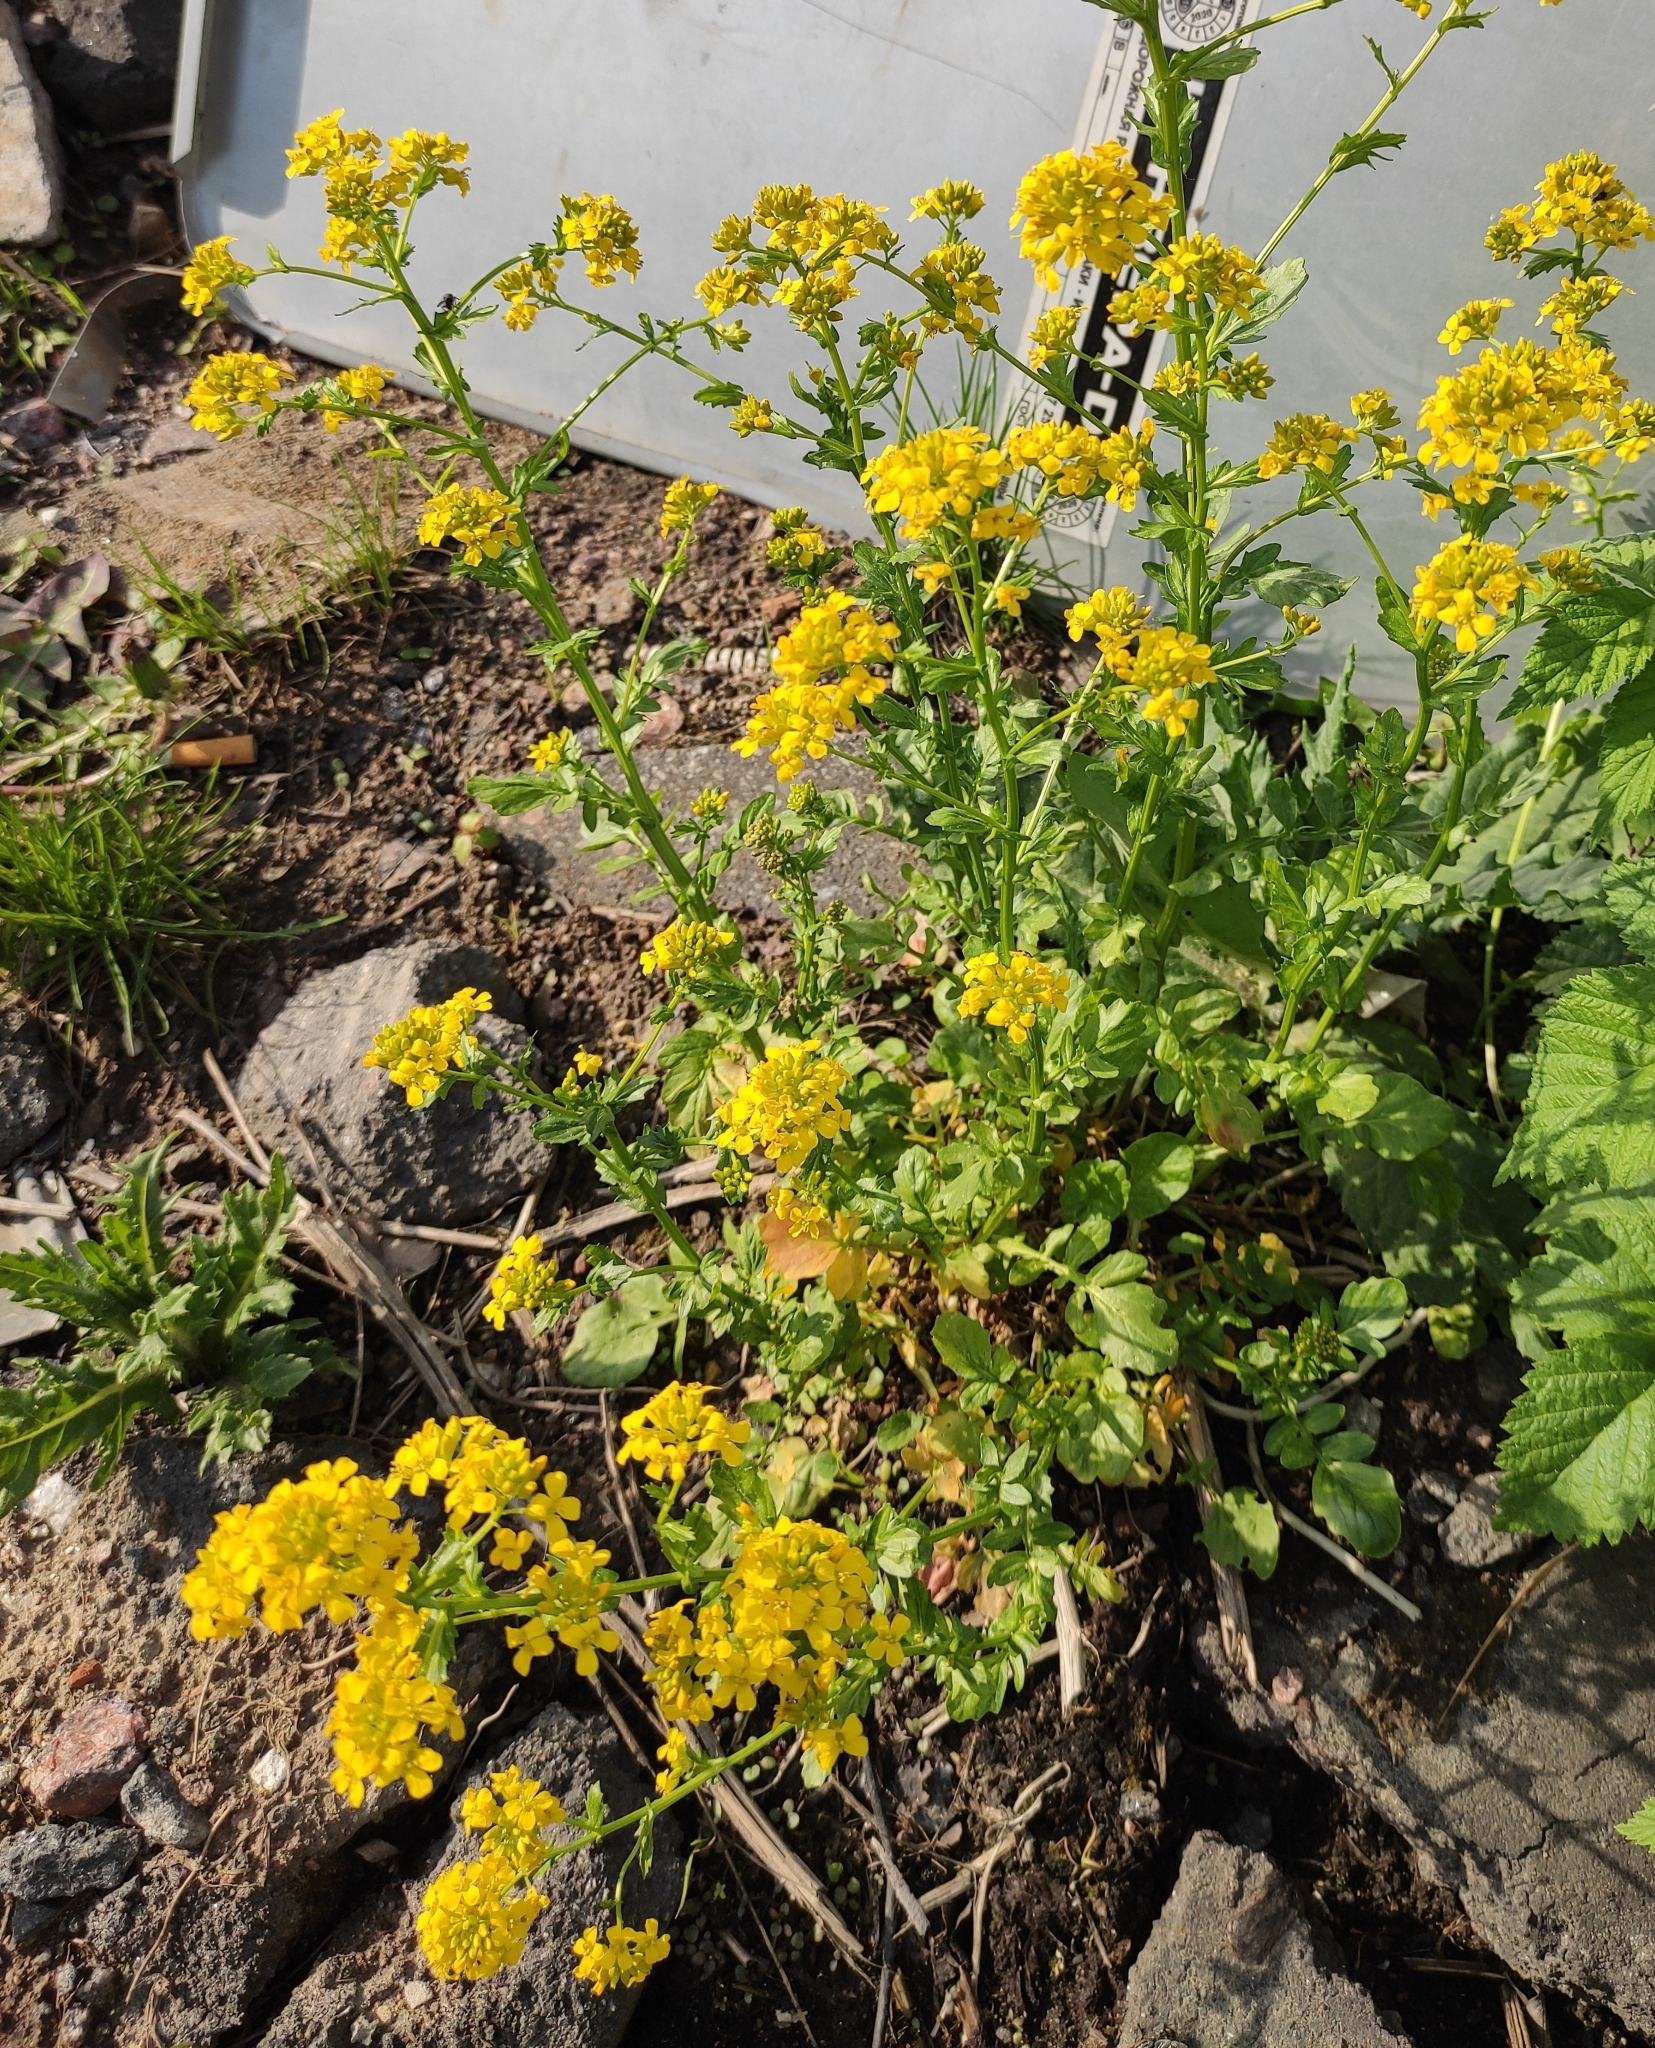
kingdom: Plantae
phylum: Tracheophyta
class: Magnoliopsida
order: Brassicales
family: Brassicaceae
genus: Barbarea
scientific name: Barbarea vulgaris
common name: Cressy-greens
